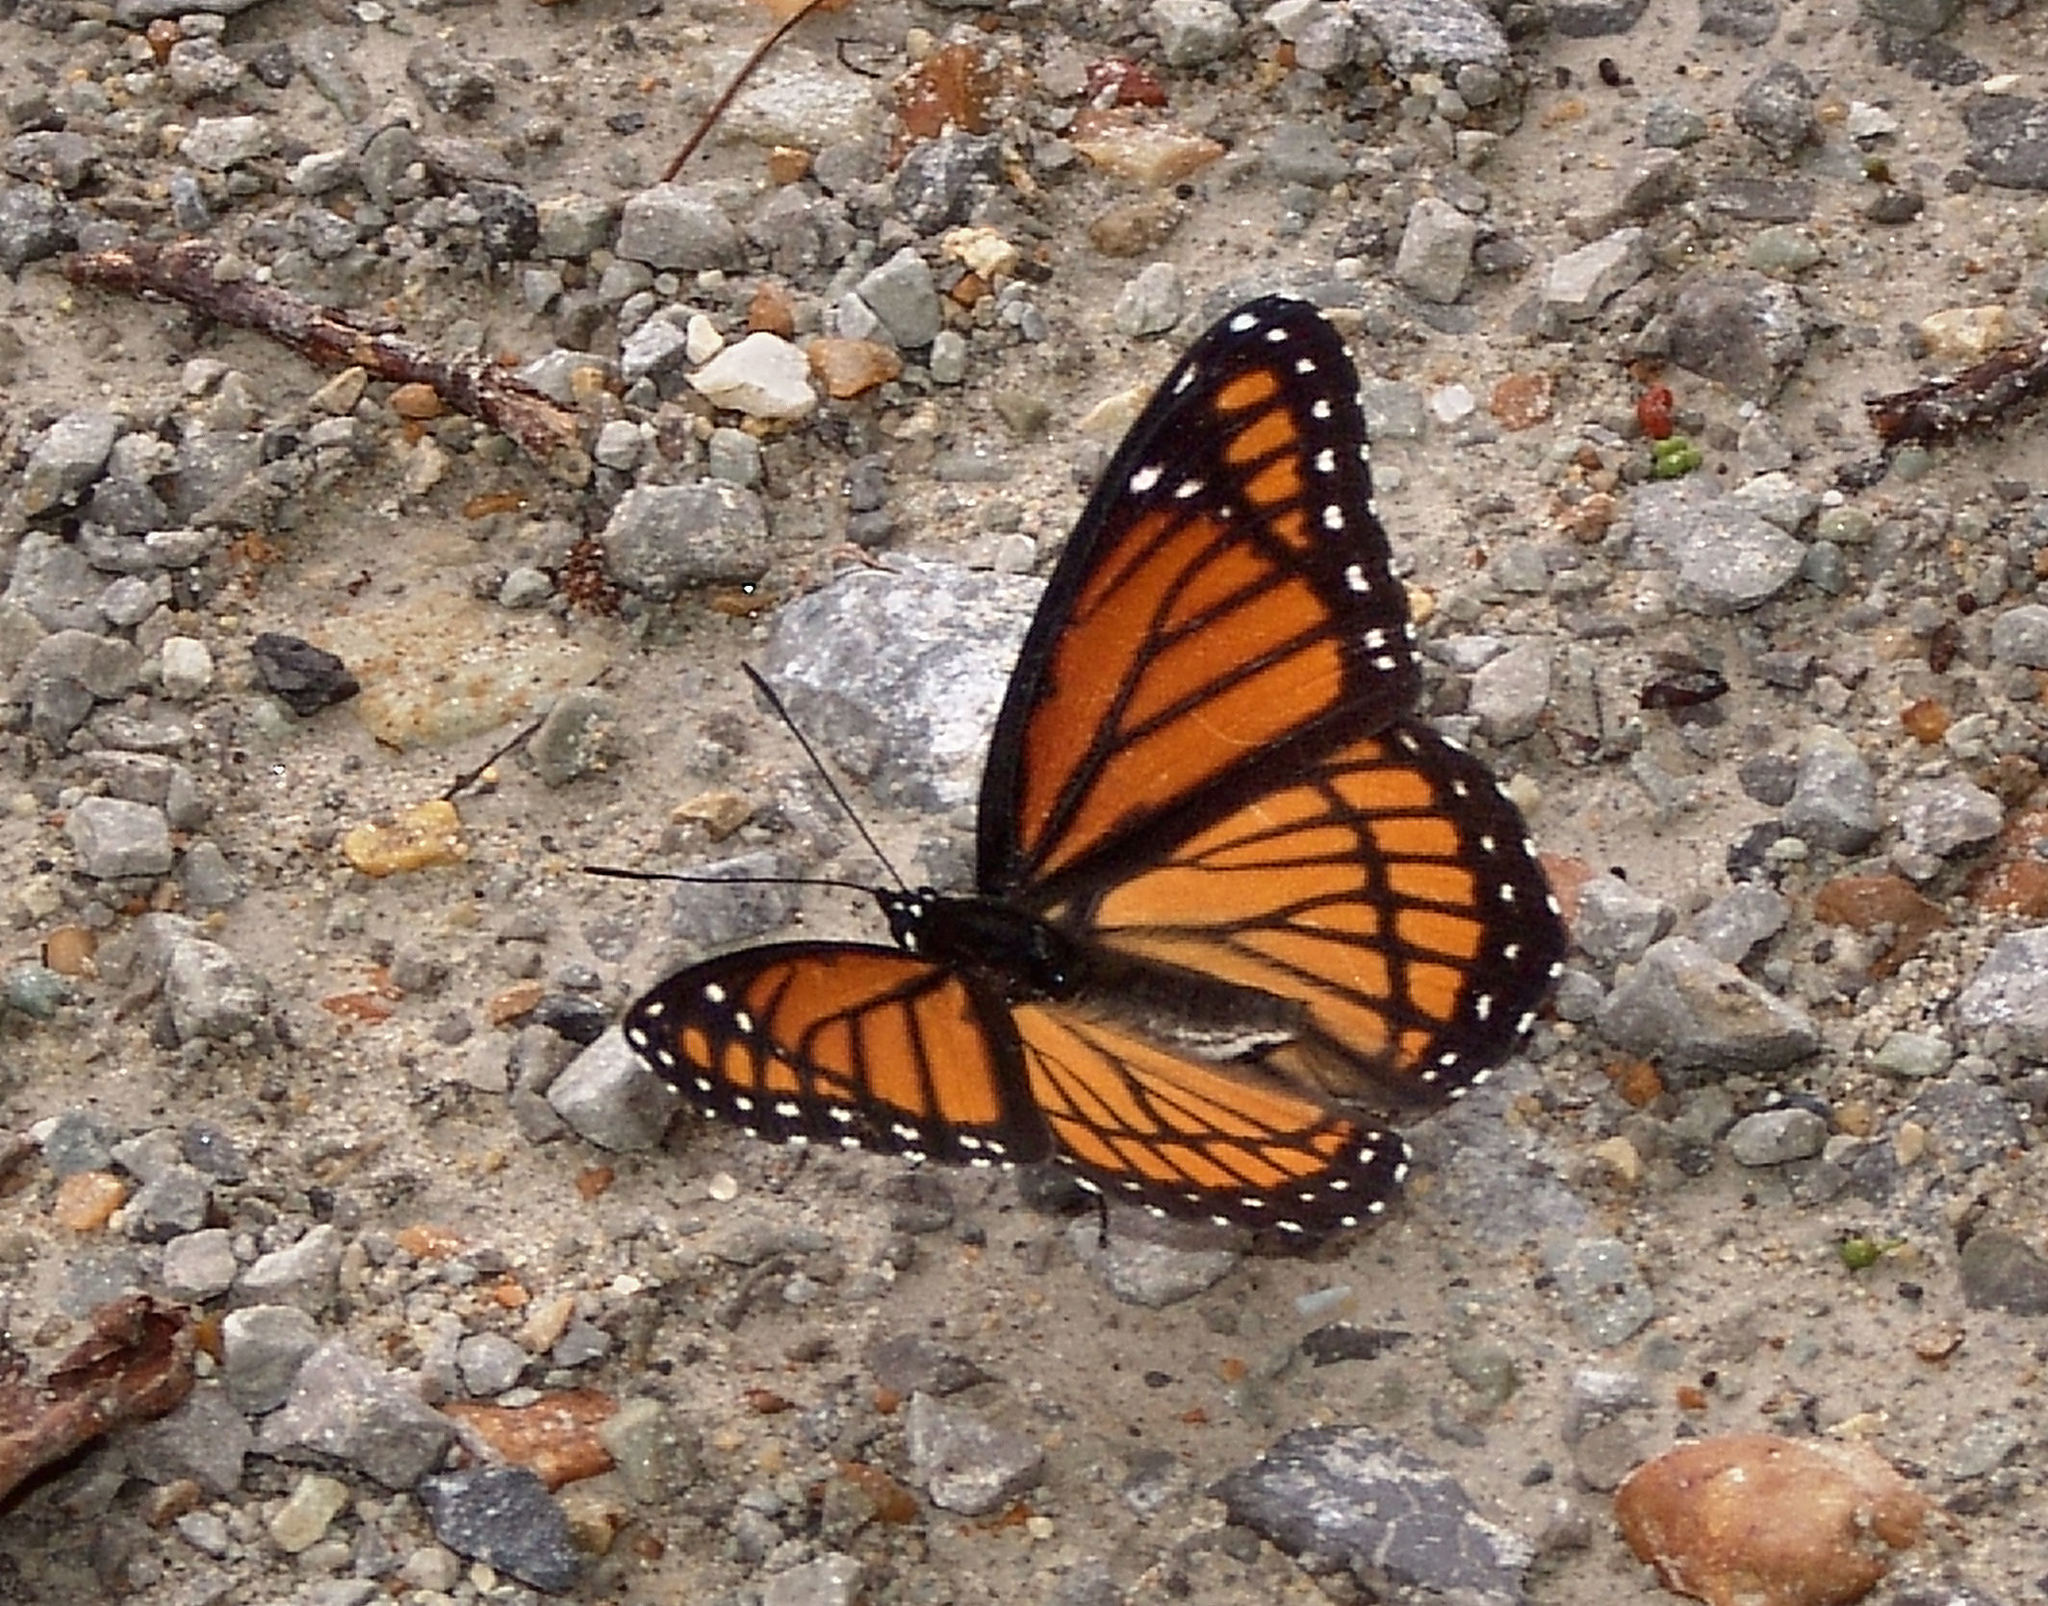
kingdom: Animalia
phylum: Arthropoda
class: Insecta
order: Lepidoptera
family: Nymphalidae
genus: Limenitis
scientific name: Limenitis archippus
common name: Viceroy
